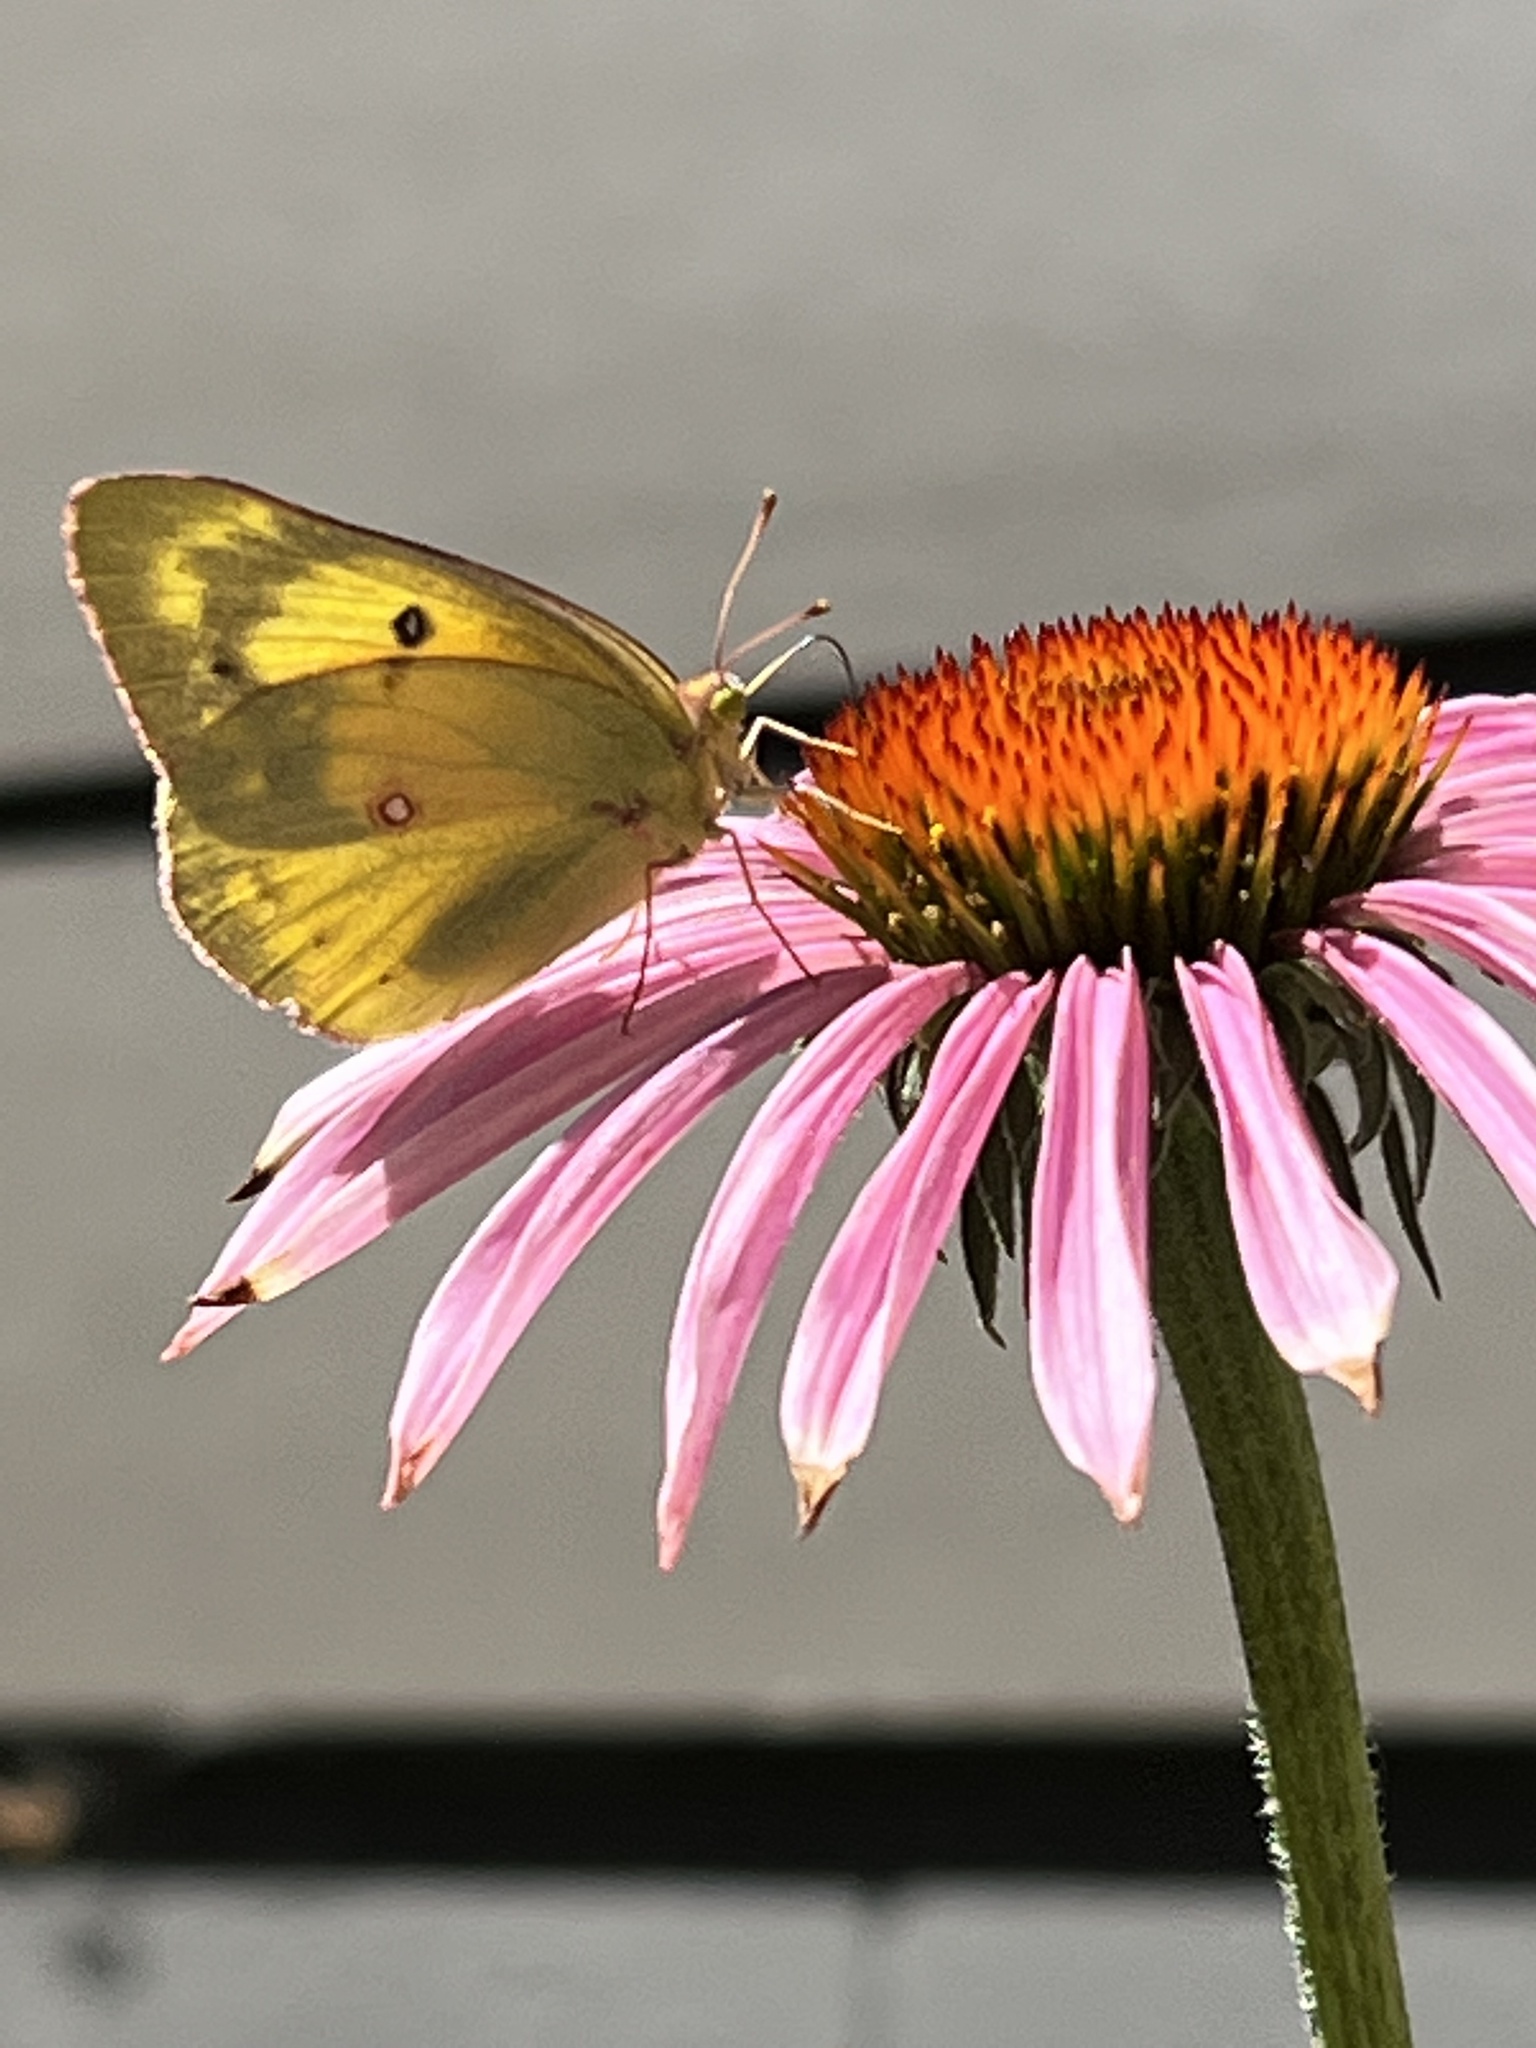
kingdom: Animalia
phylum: Arthropoda
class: Insecta
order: Lepidoptera
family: Pieridae
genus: Colias
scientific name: Colias eurytheme
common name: Alfalfa butterfly
